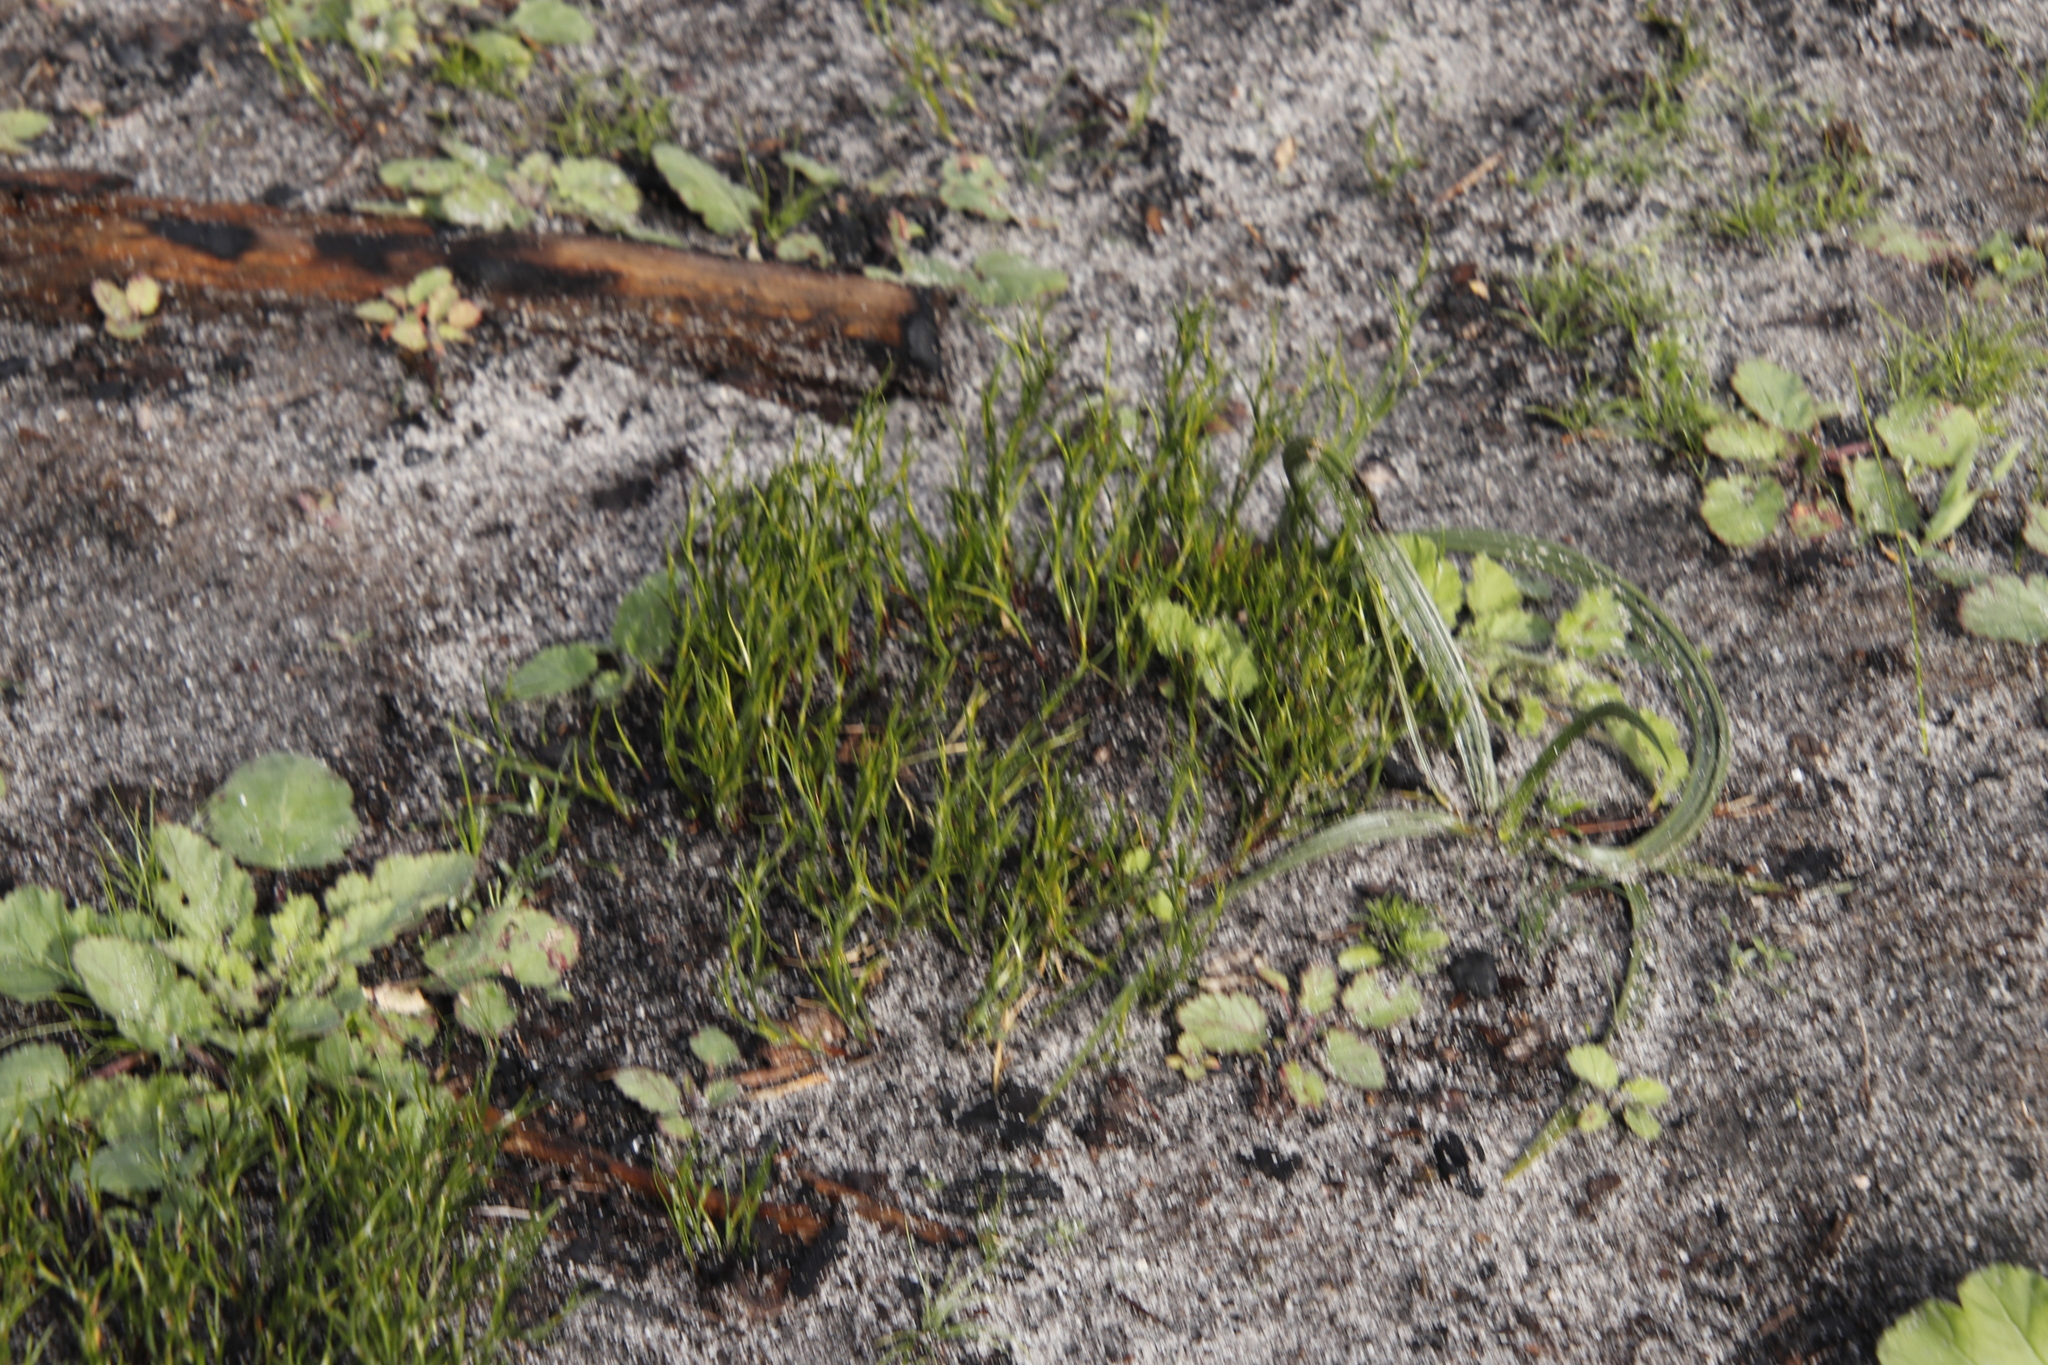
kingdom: Plantae
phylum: Tracheophyta
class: Liliopsida
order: Poales
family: Restionaceae
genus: Restio
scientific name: Restio capensis
